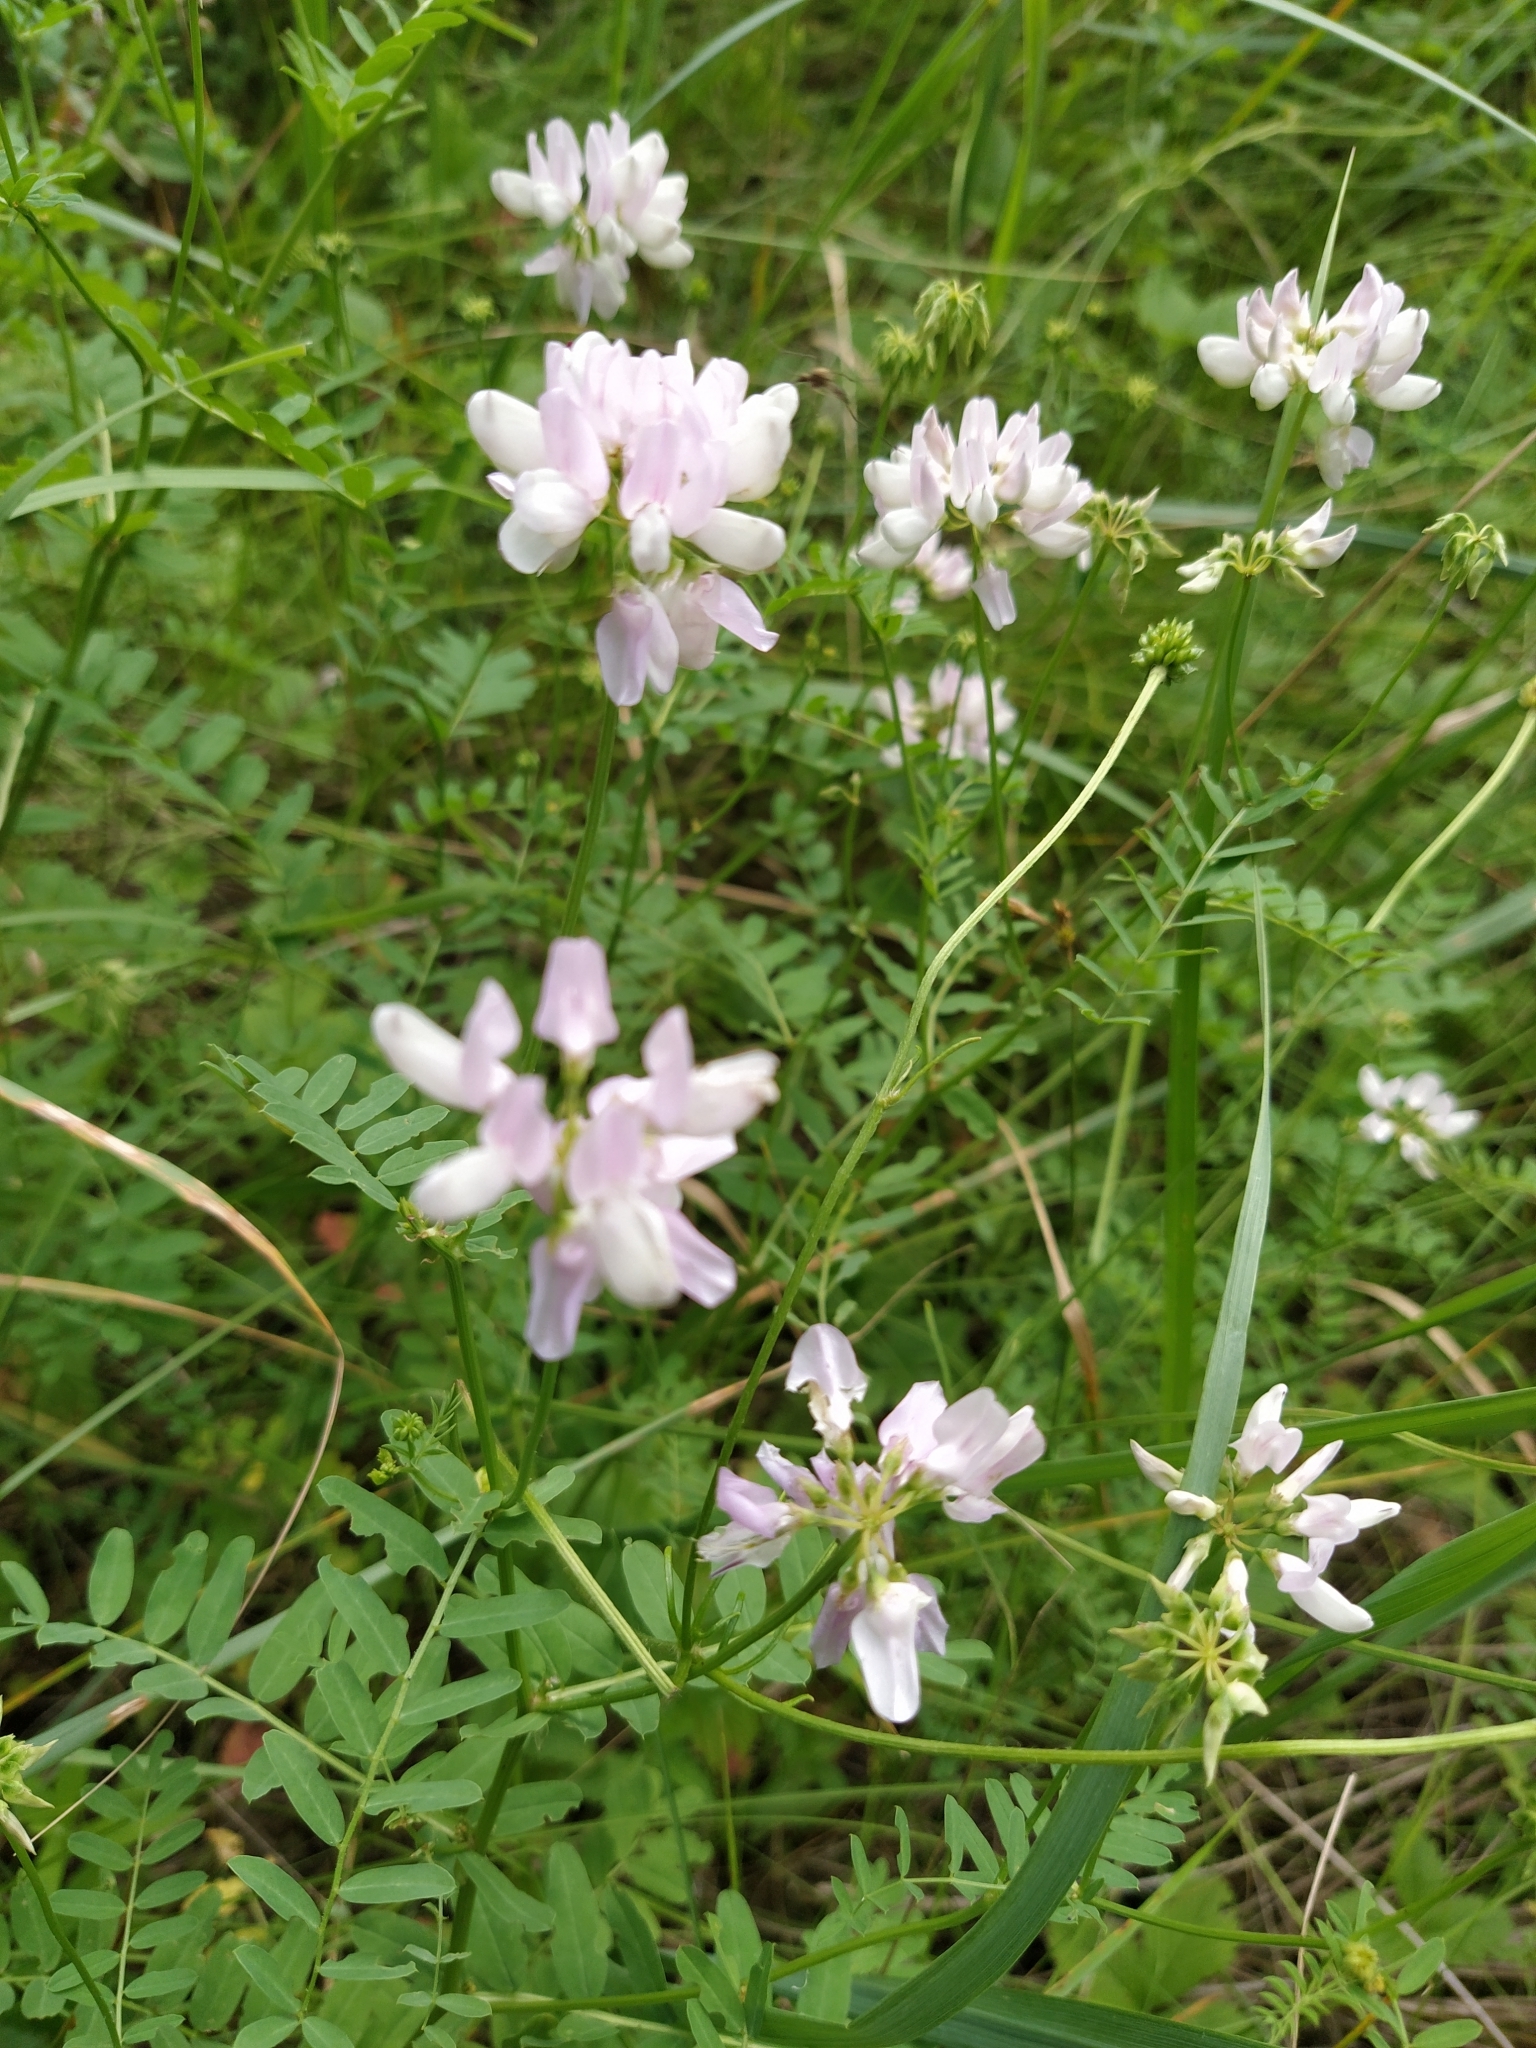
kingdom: Plantae
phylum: Tracheophyta
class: Magnoliopsida
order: Fabales
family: Fabaceae
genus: Coronilla
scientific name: Coronilla varia
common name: Crownvetch
